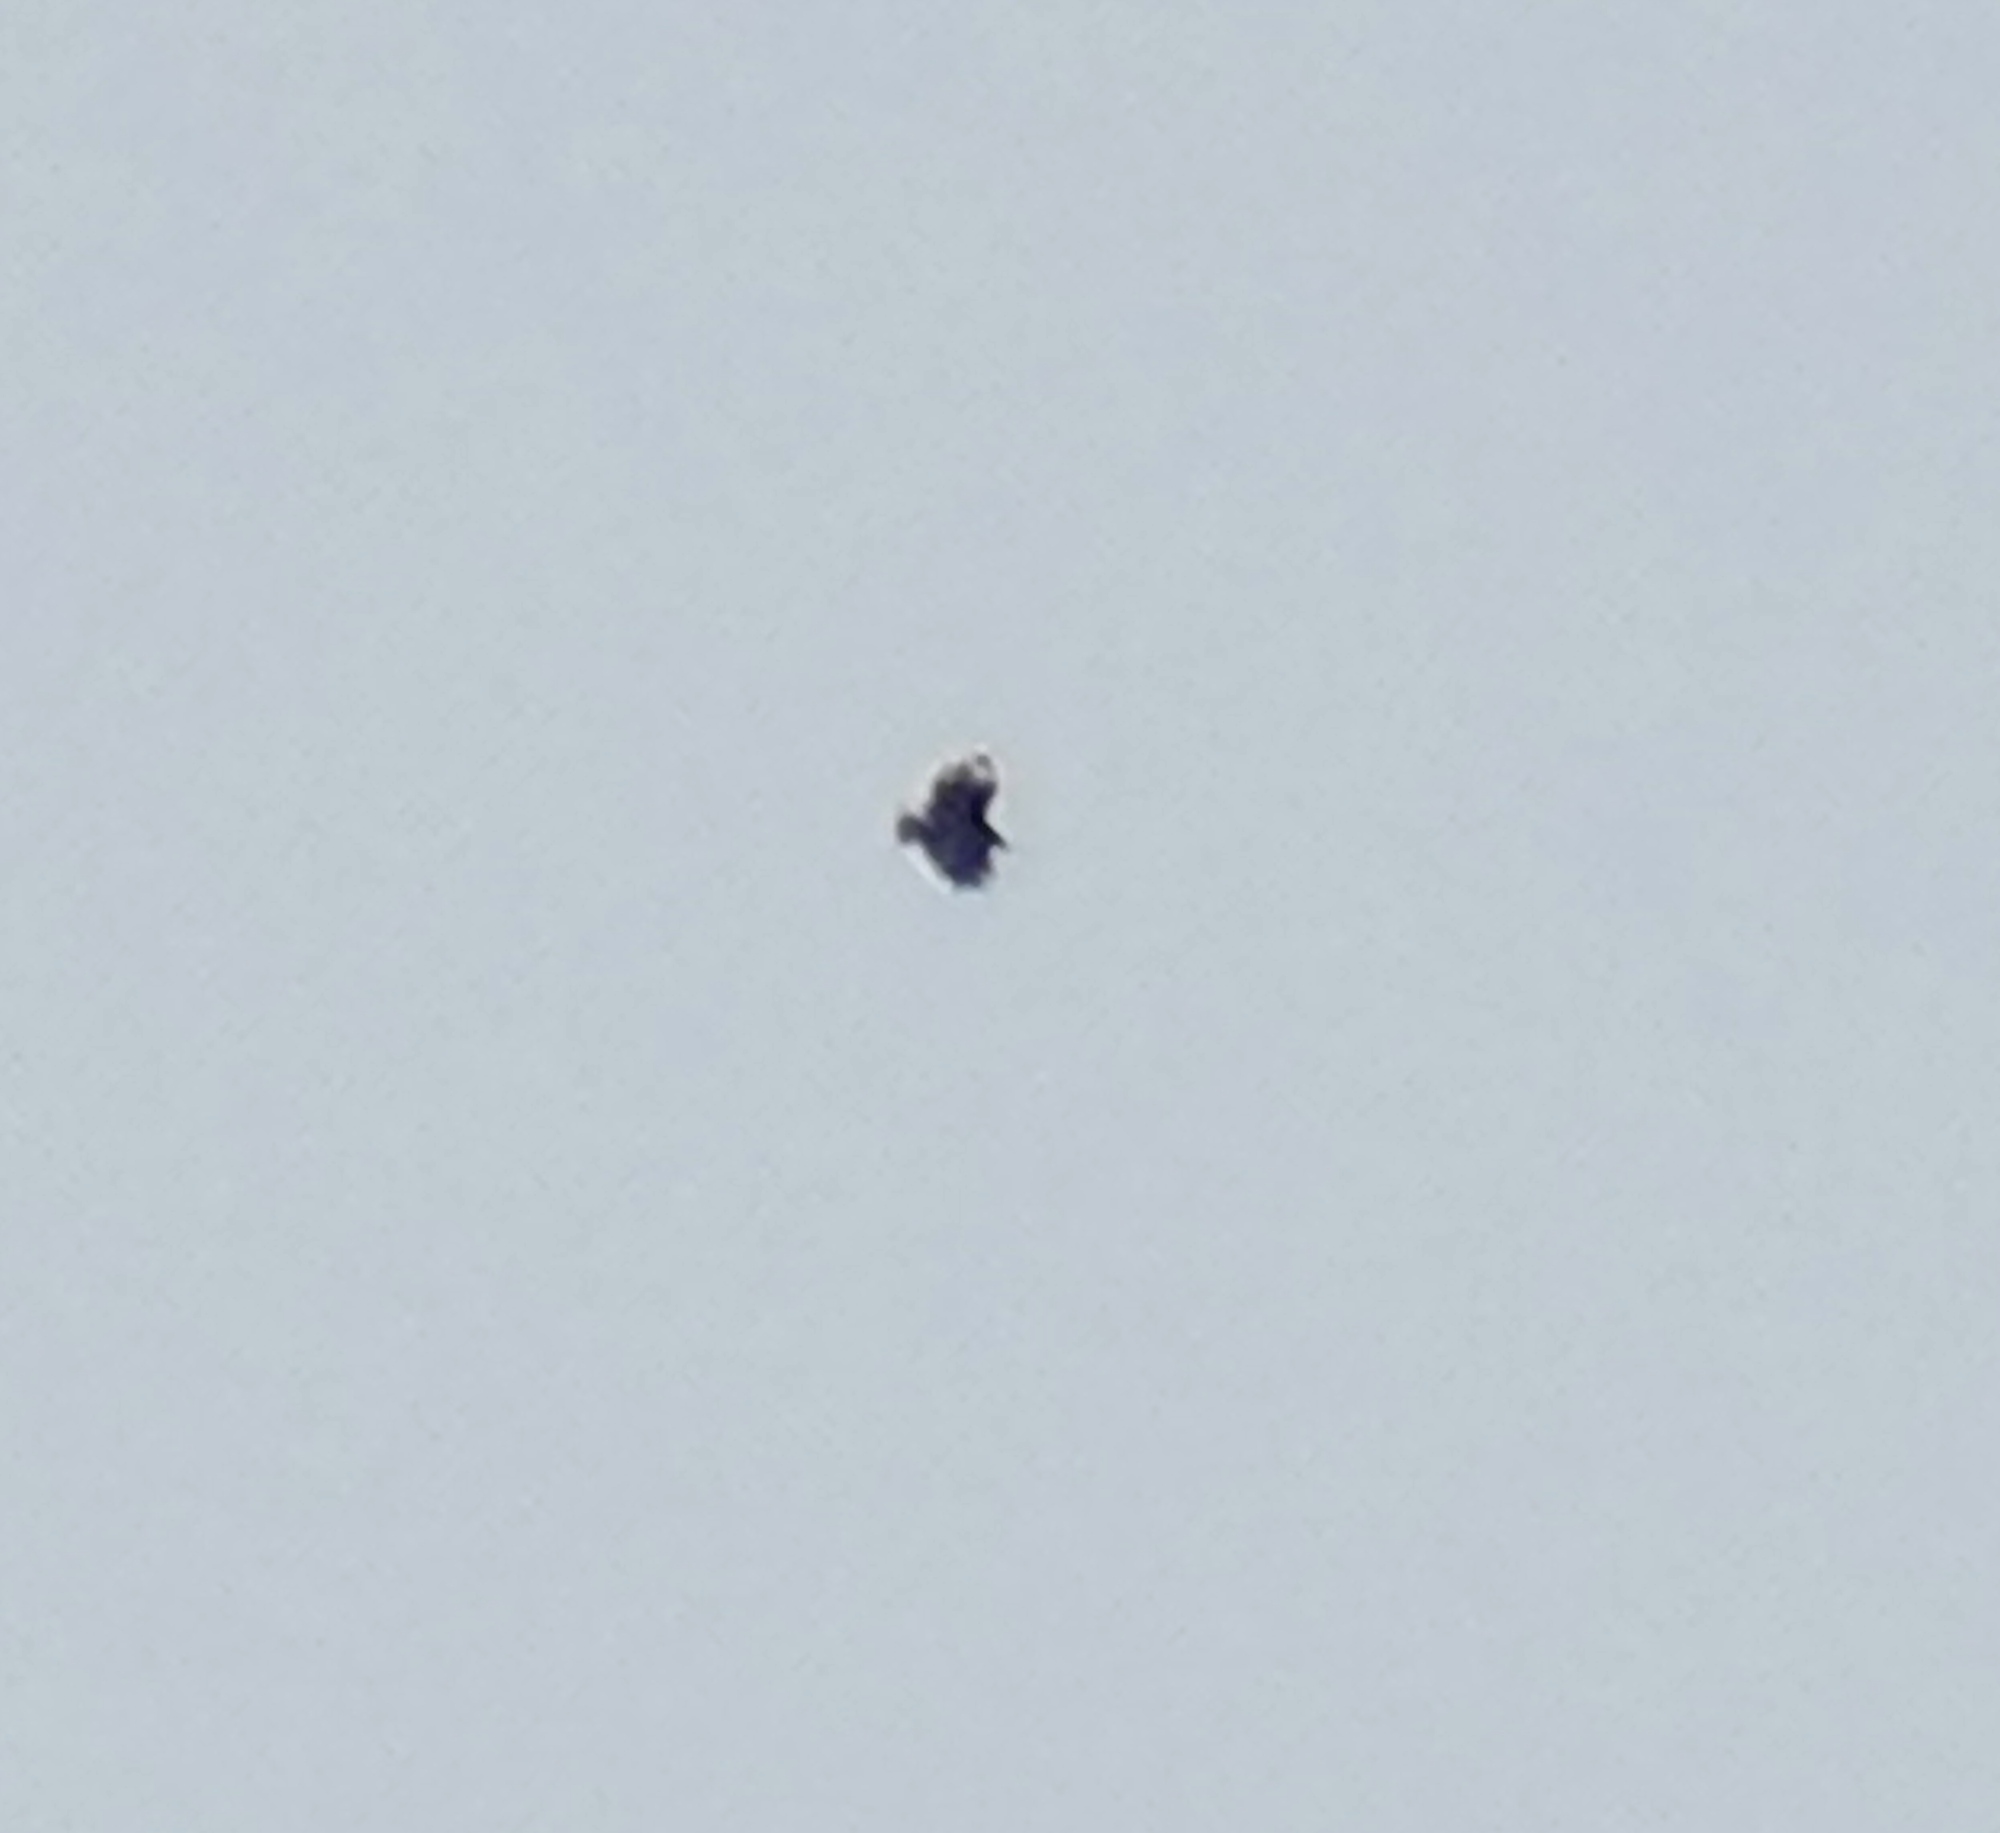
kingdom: Animalia
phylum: Chordata
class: Aves
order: Accipitriformes
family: Cathartidae
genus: Coragyps
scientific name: Coragyps atratus
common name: Black vulture
